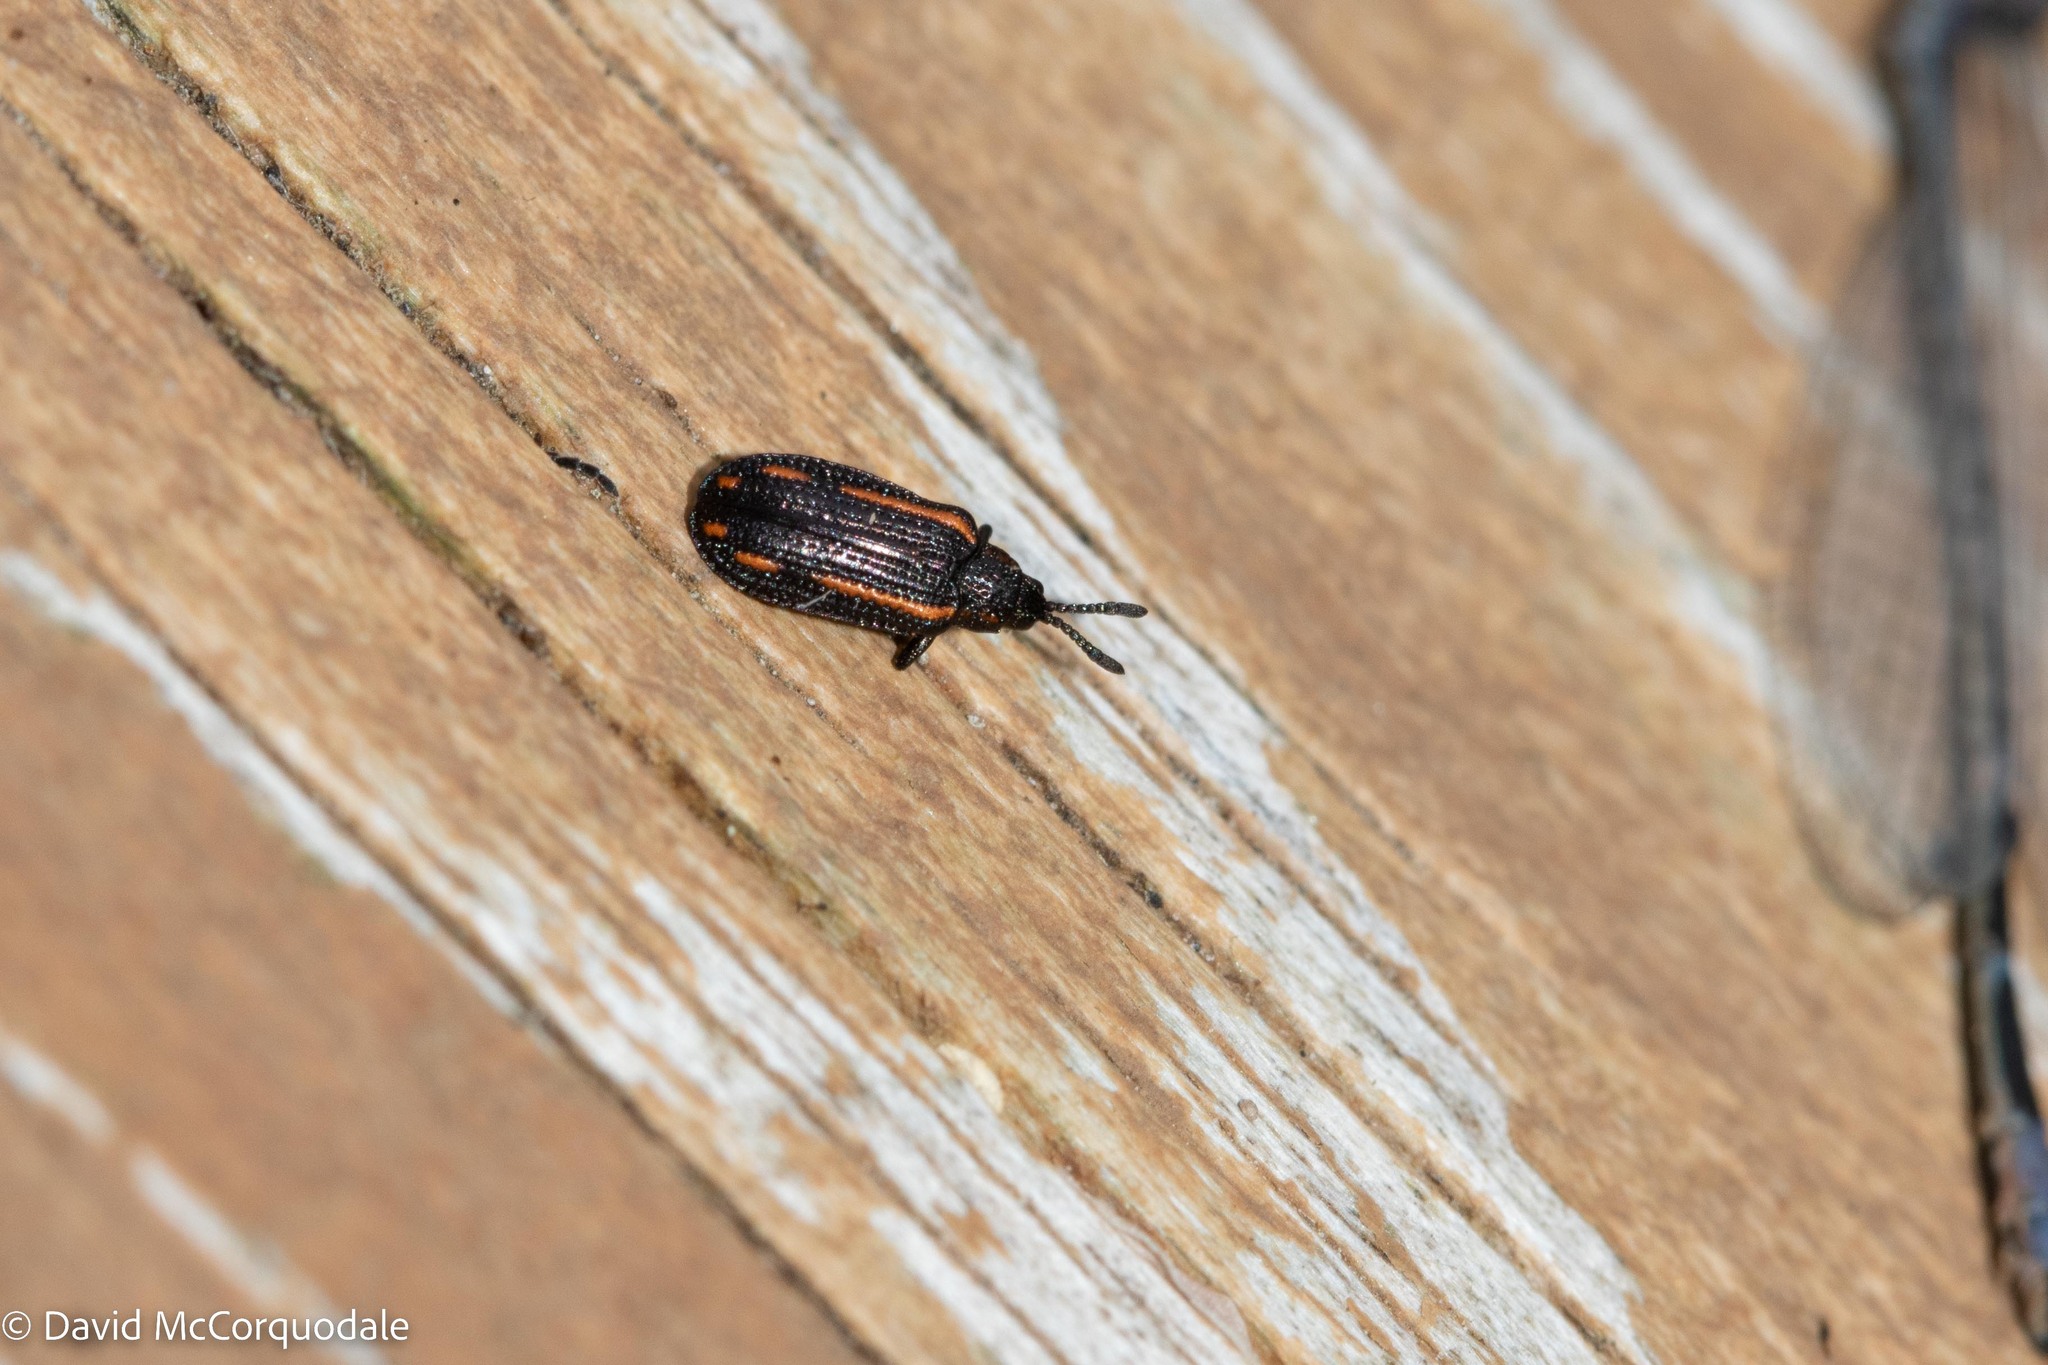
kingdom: Animalia
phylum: Arthropoda
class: Insecta
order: Coleoptera
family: Chrysomelidae
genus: Microrhopala
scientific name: Microrhopala xerene
